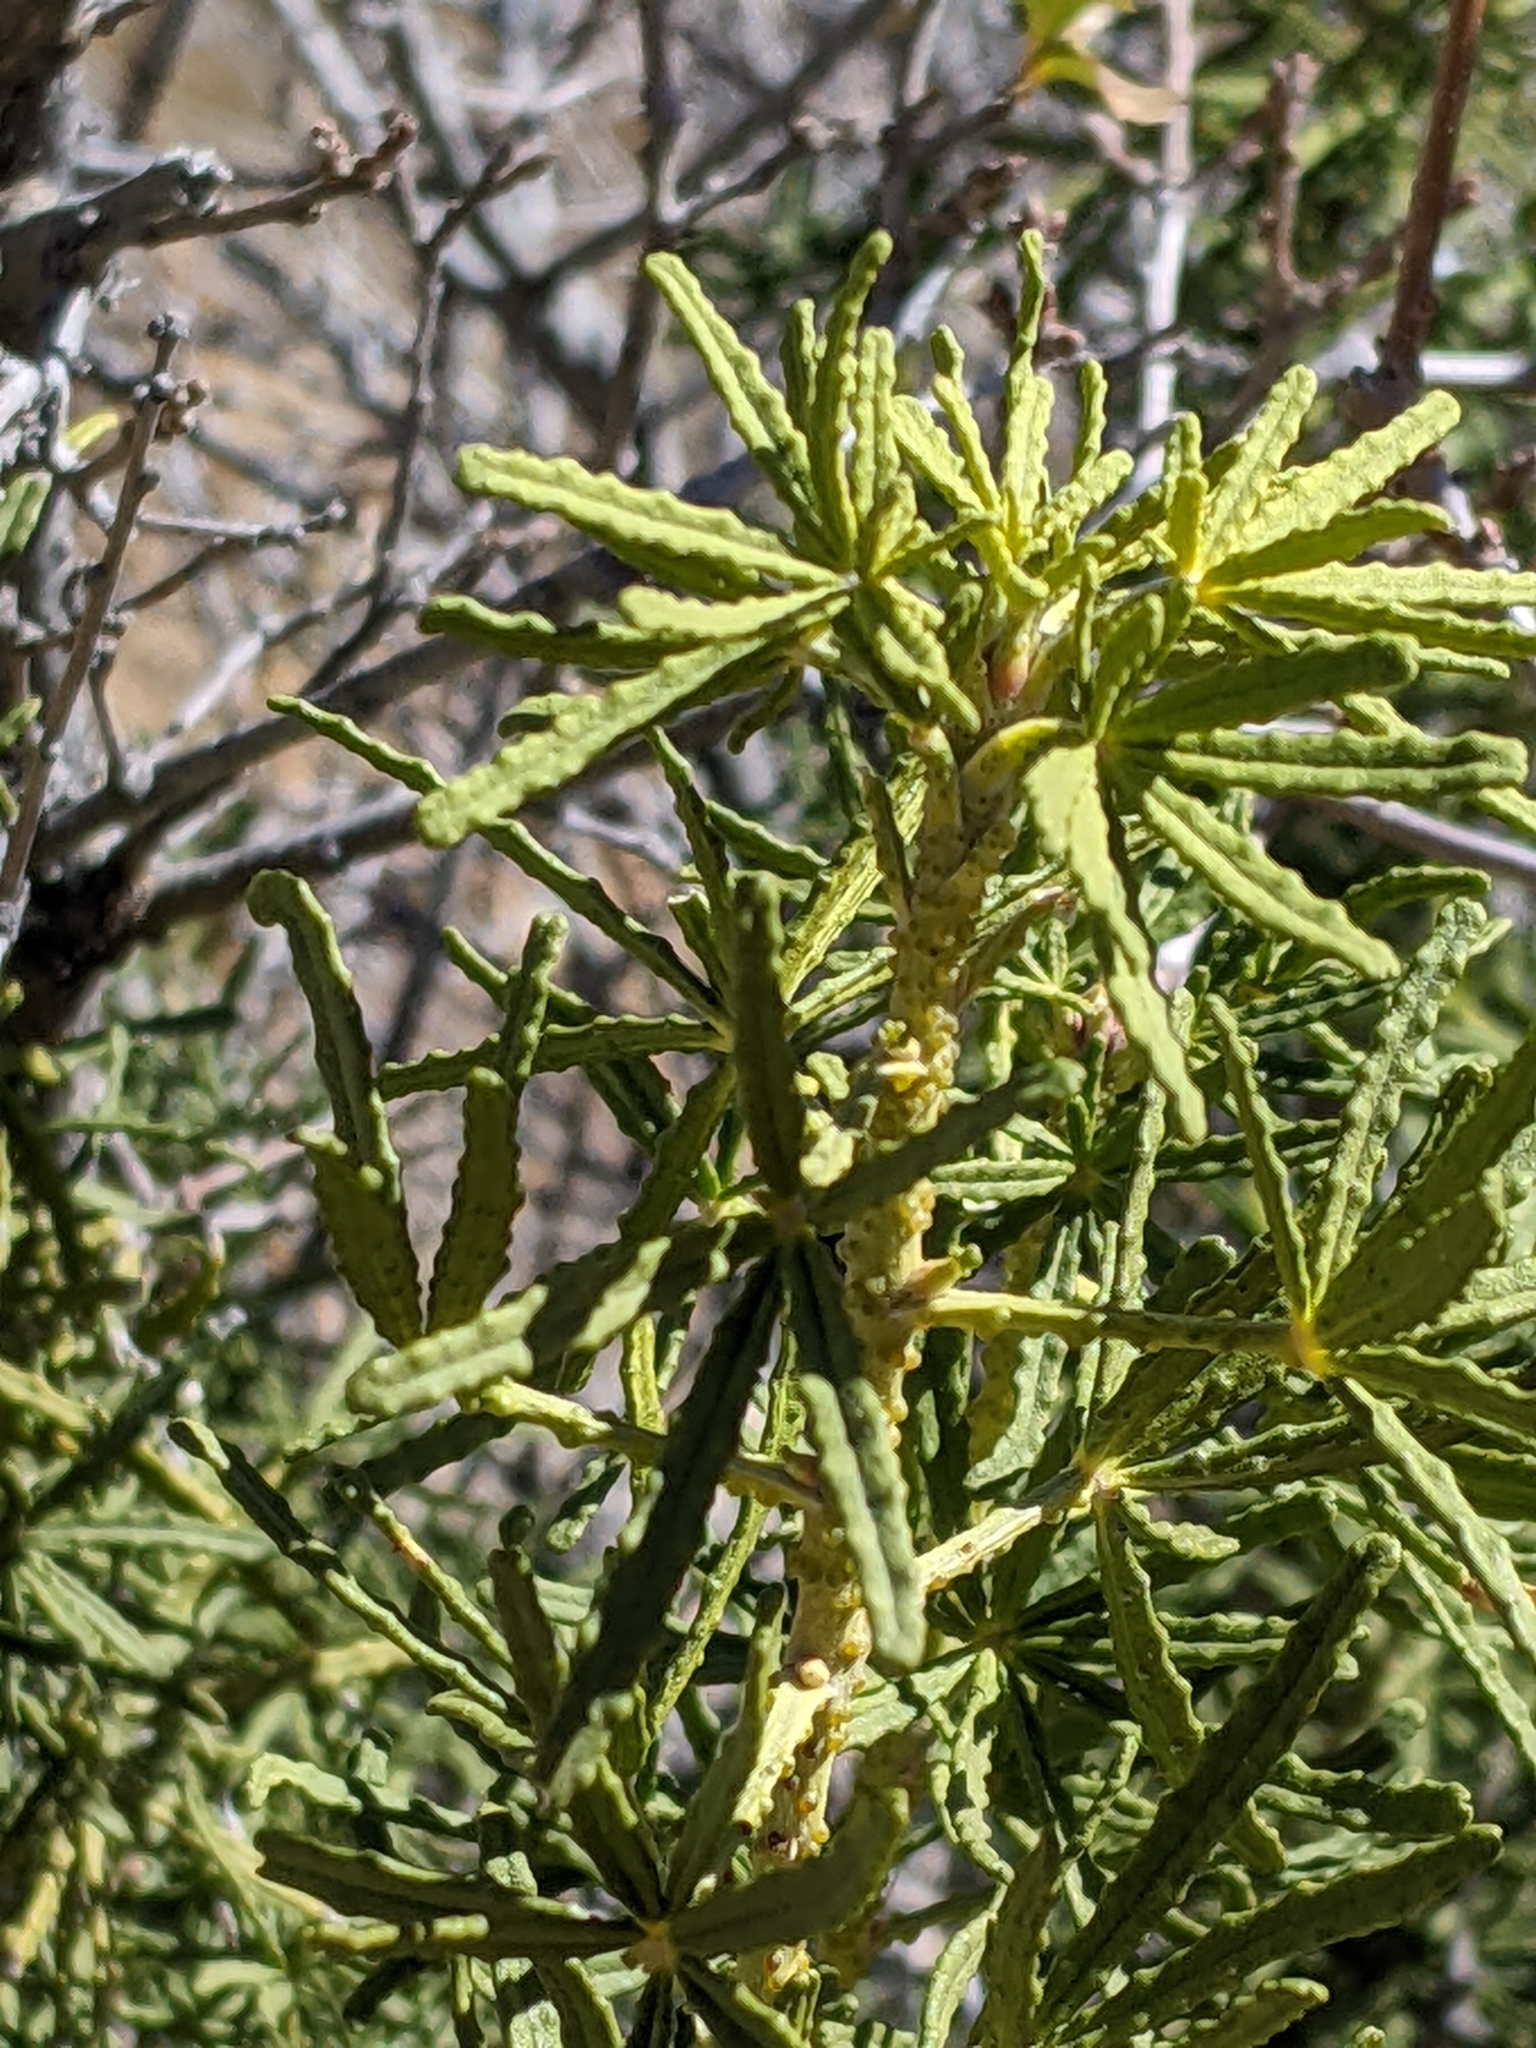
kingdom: Plantae
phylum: Tracheophyta
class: Magnoliopsida
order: Sapindales
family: Rutaceae
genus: Choisya
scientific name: Choisya dumosa
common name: Mexican-orange
